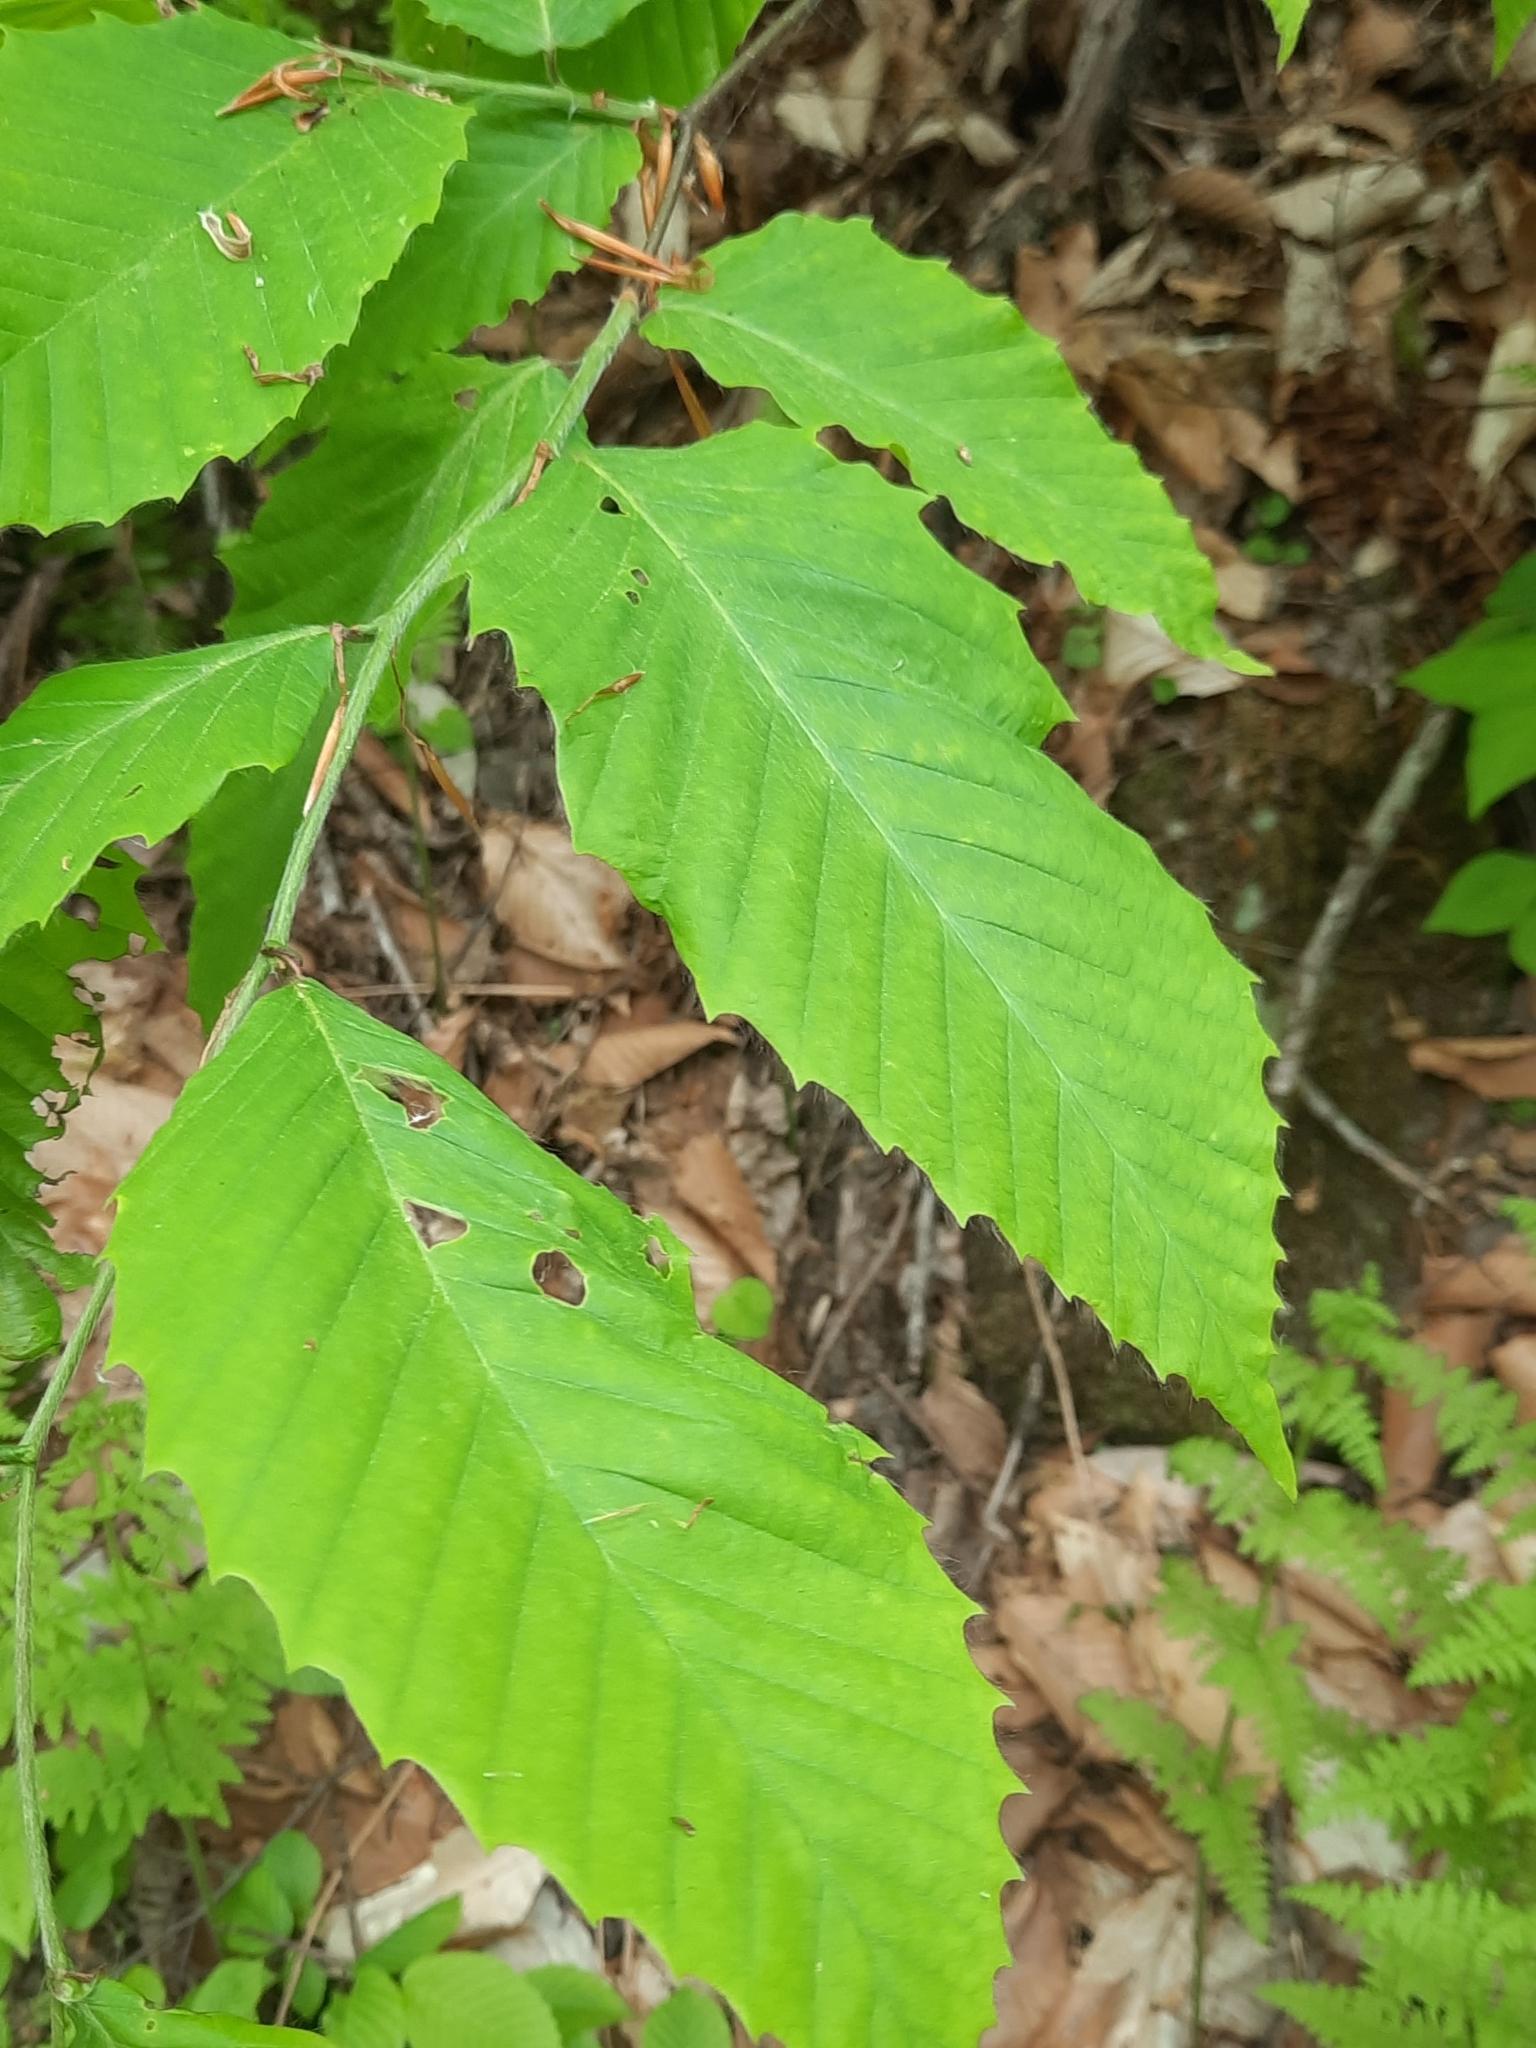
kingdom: Plantae
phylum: Tracheophyta
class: Magnoliopsida
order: Fagales
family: Fagaceae
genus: Fagus
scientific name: Fagus grandifolia
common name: American beech
